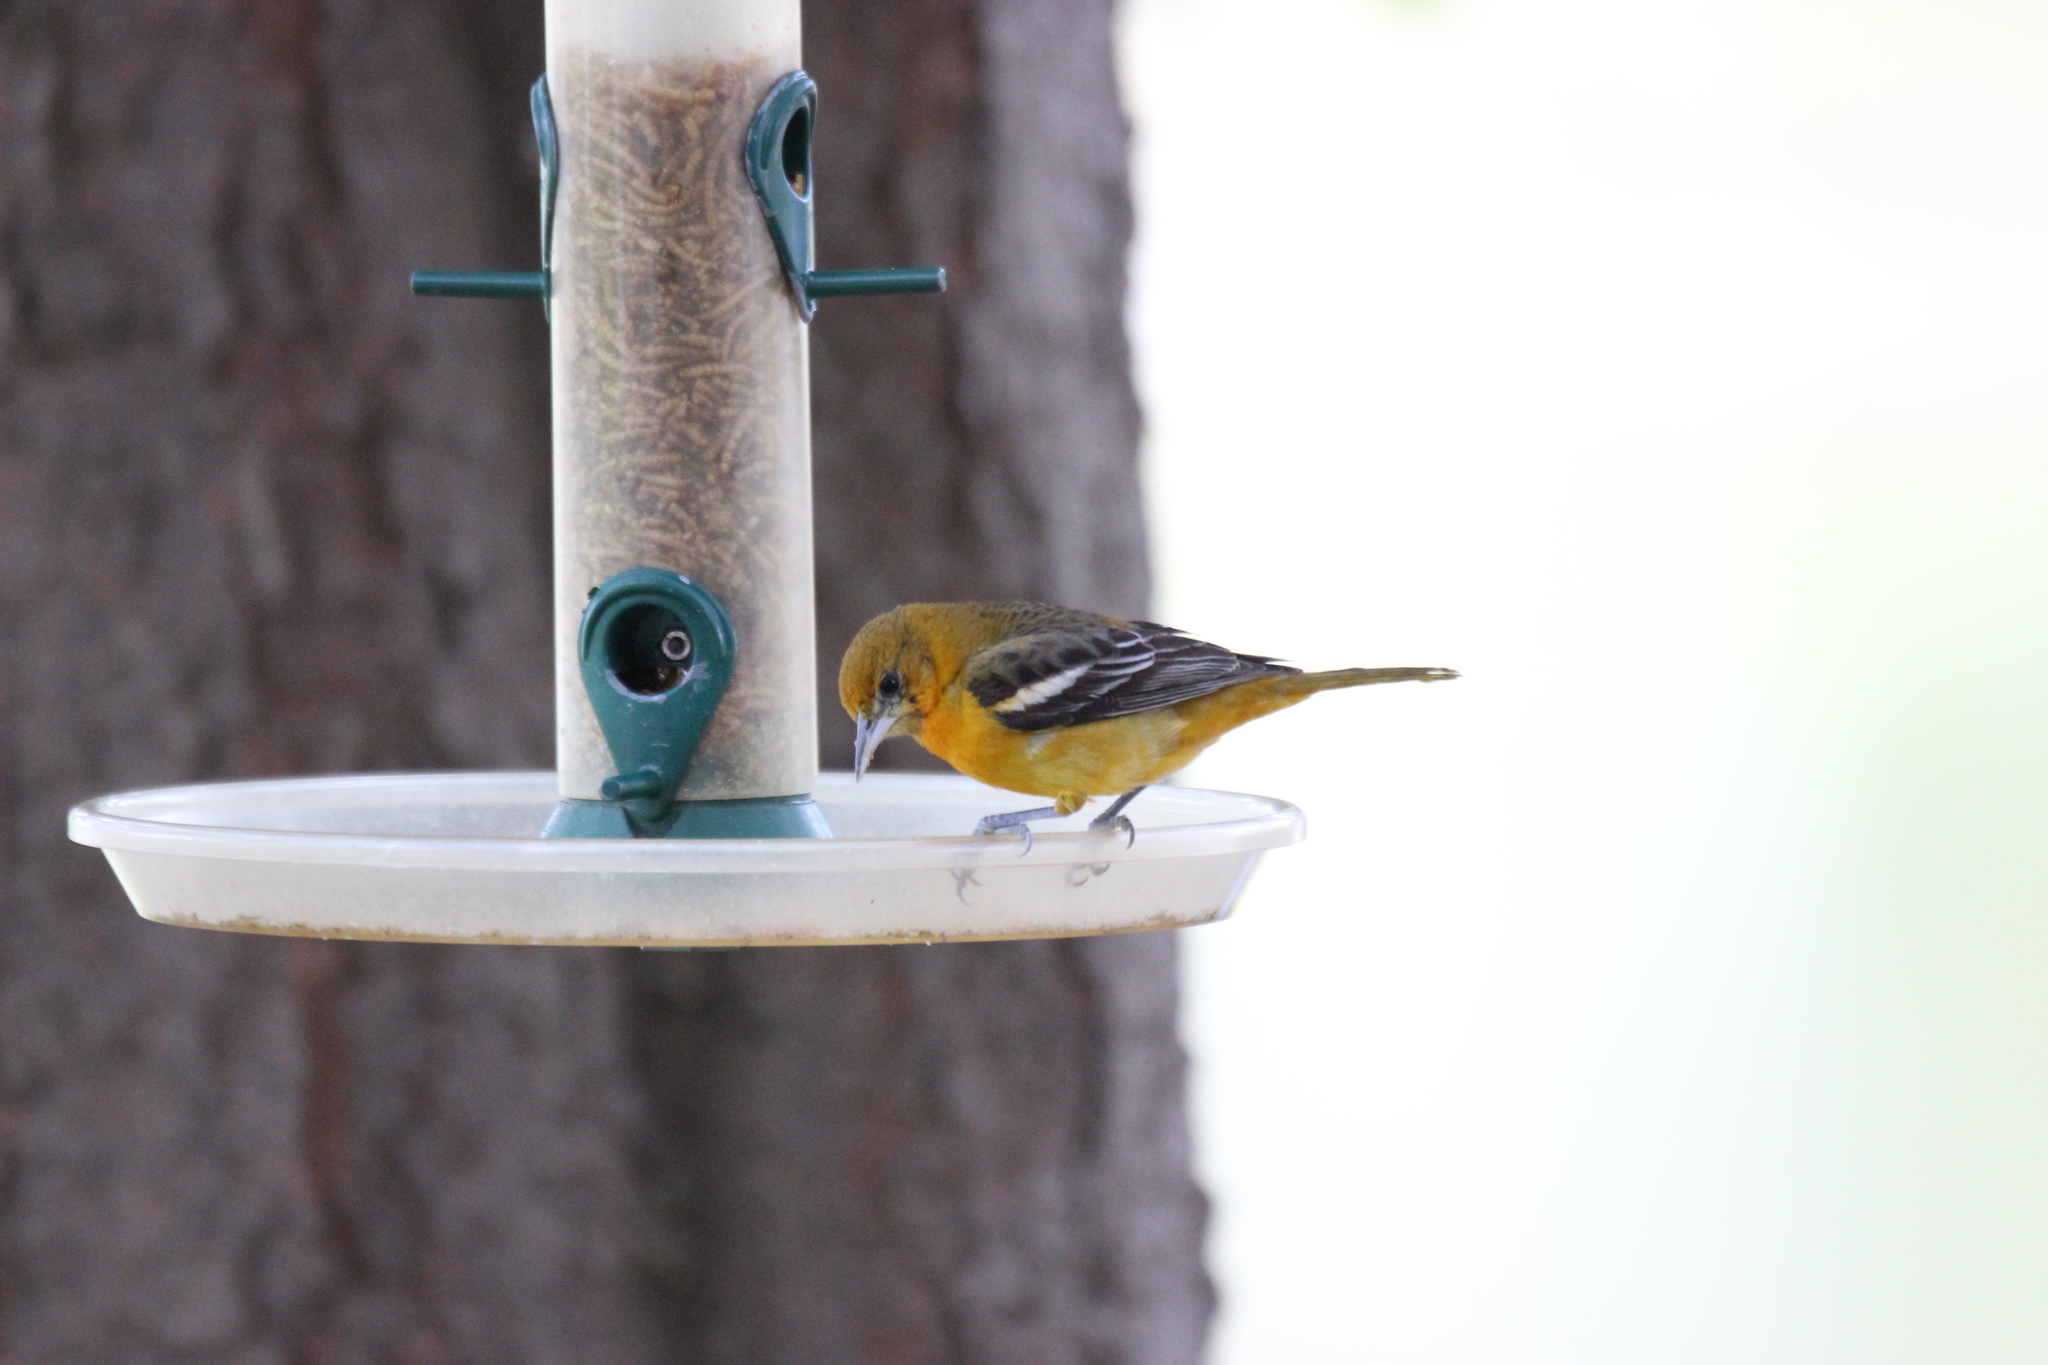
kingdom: Animalia
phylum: Chordata
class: Aves
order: Passeriformes
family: Icteridae
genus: Icterus
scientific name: Icterus galbula
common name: Baltimore oriole
